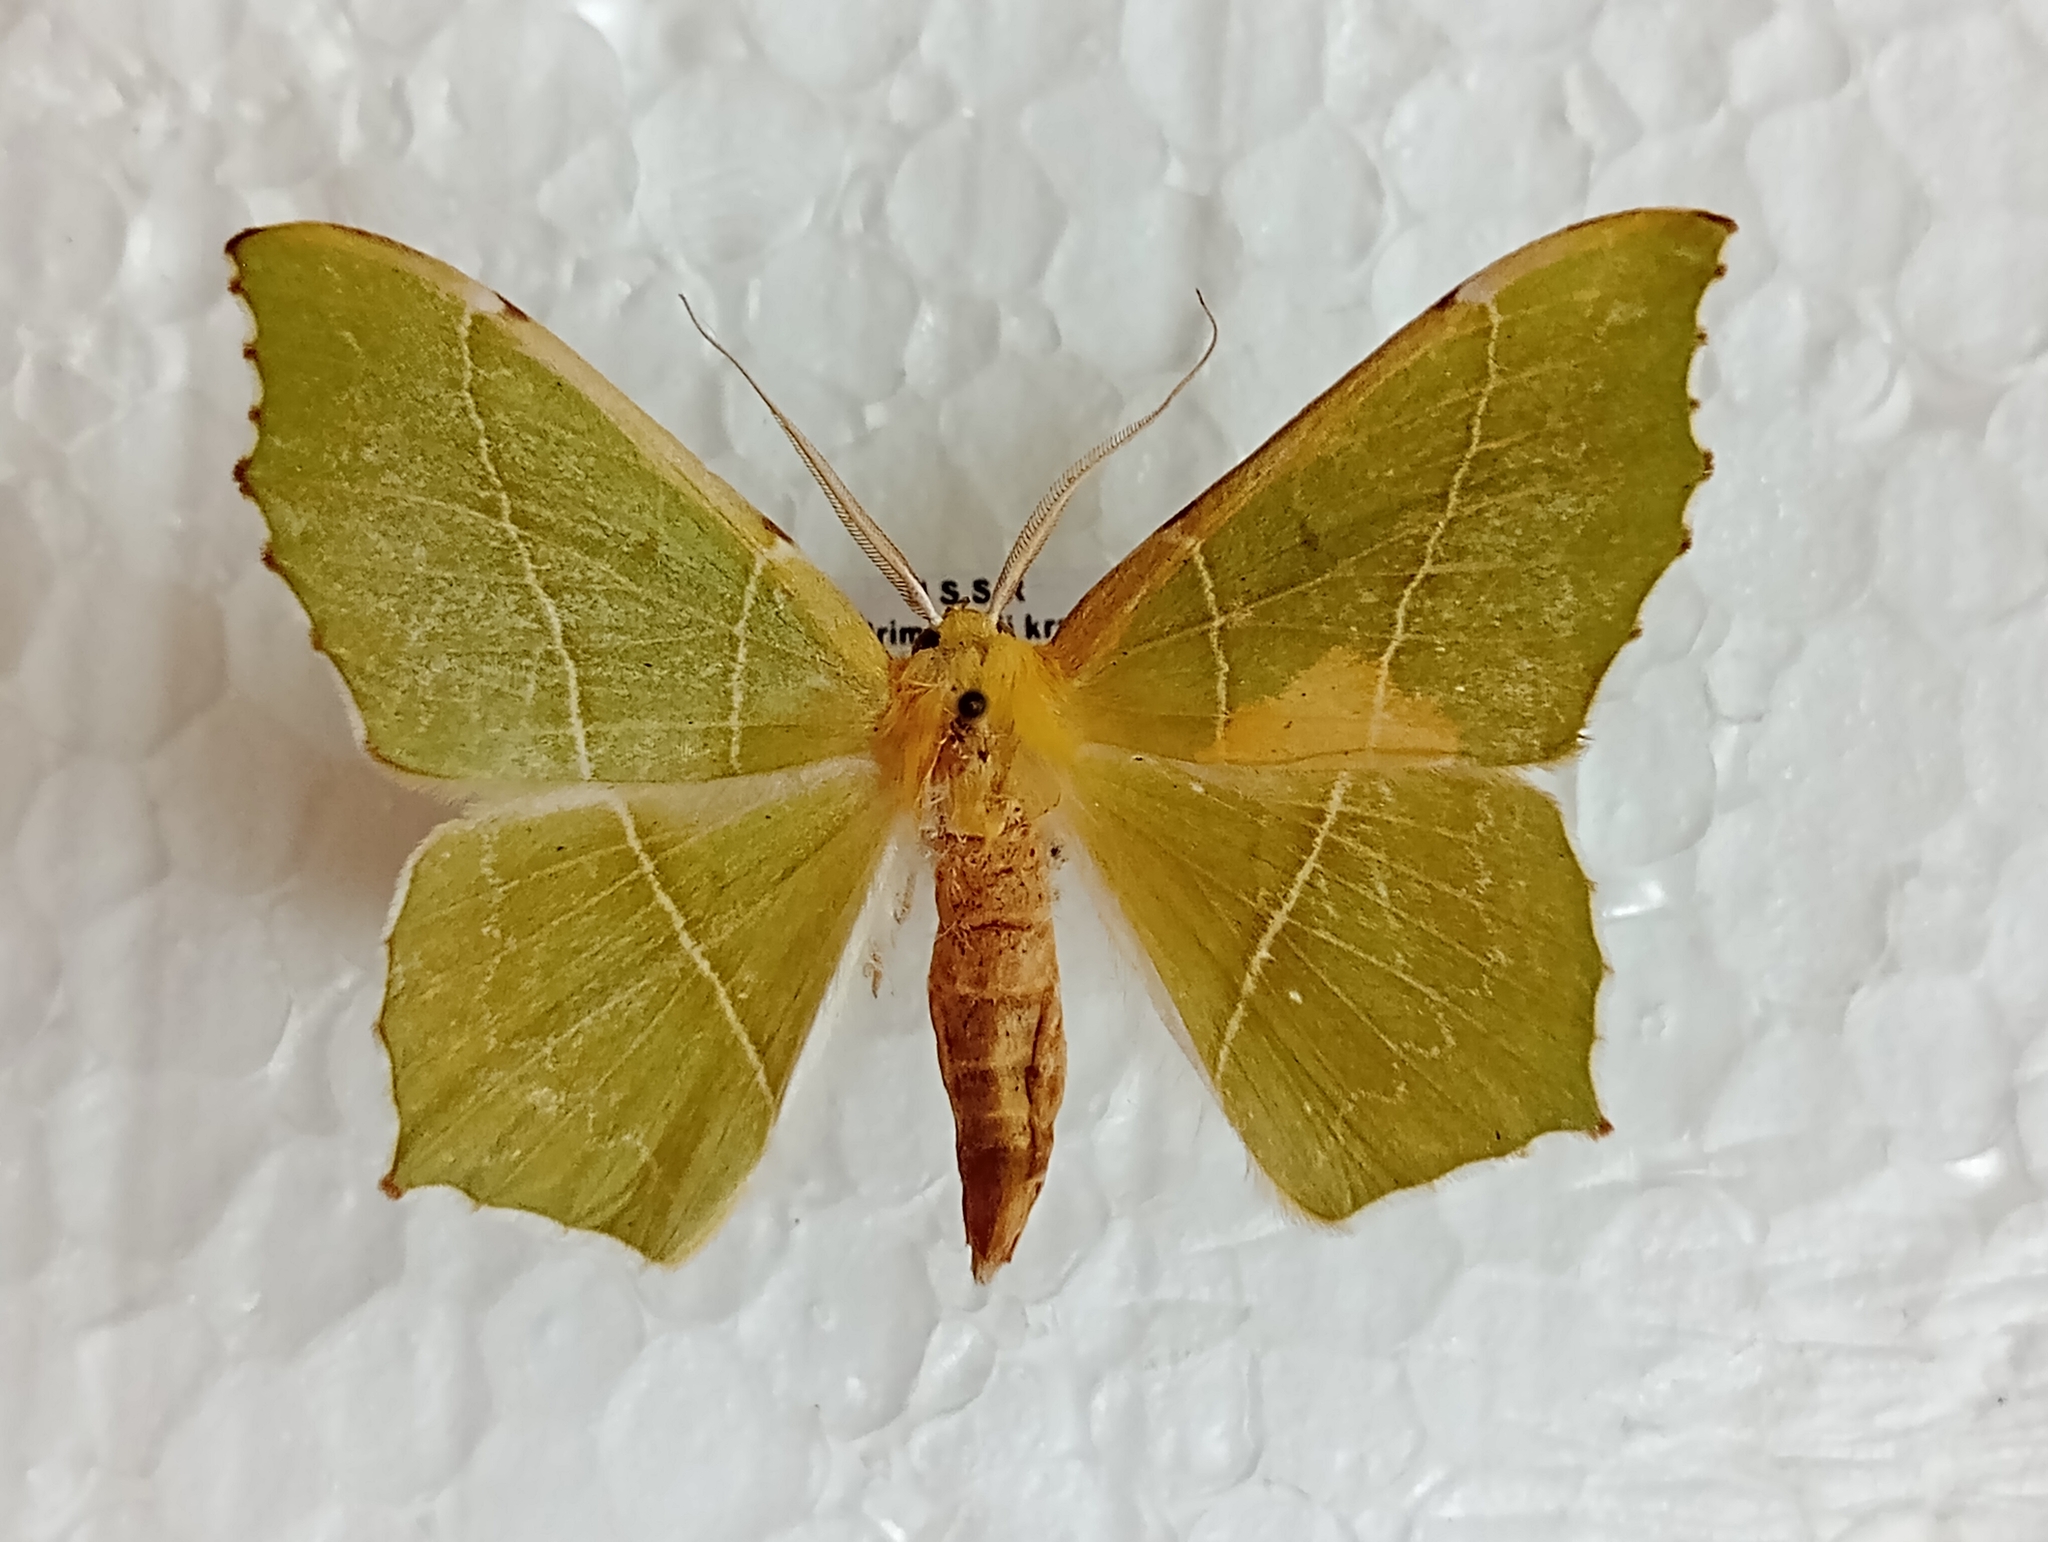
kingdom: Animalia
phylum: Arthropoda
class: Insecta
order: Lepidoptera
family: Geometridae
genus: Geometra
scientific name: Geometra ussuriensis
